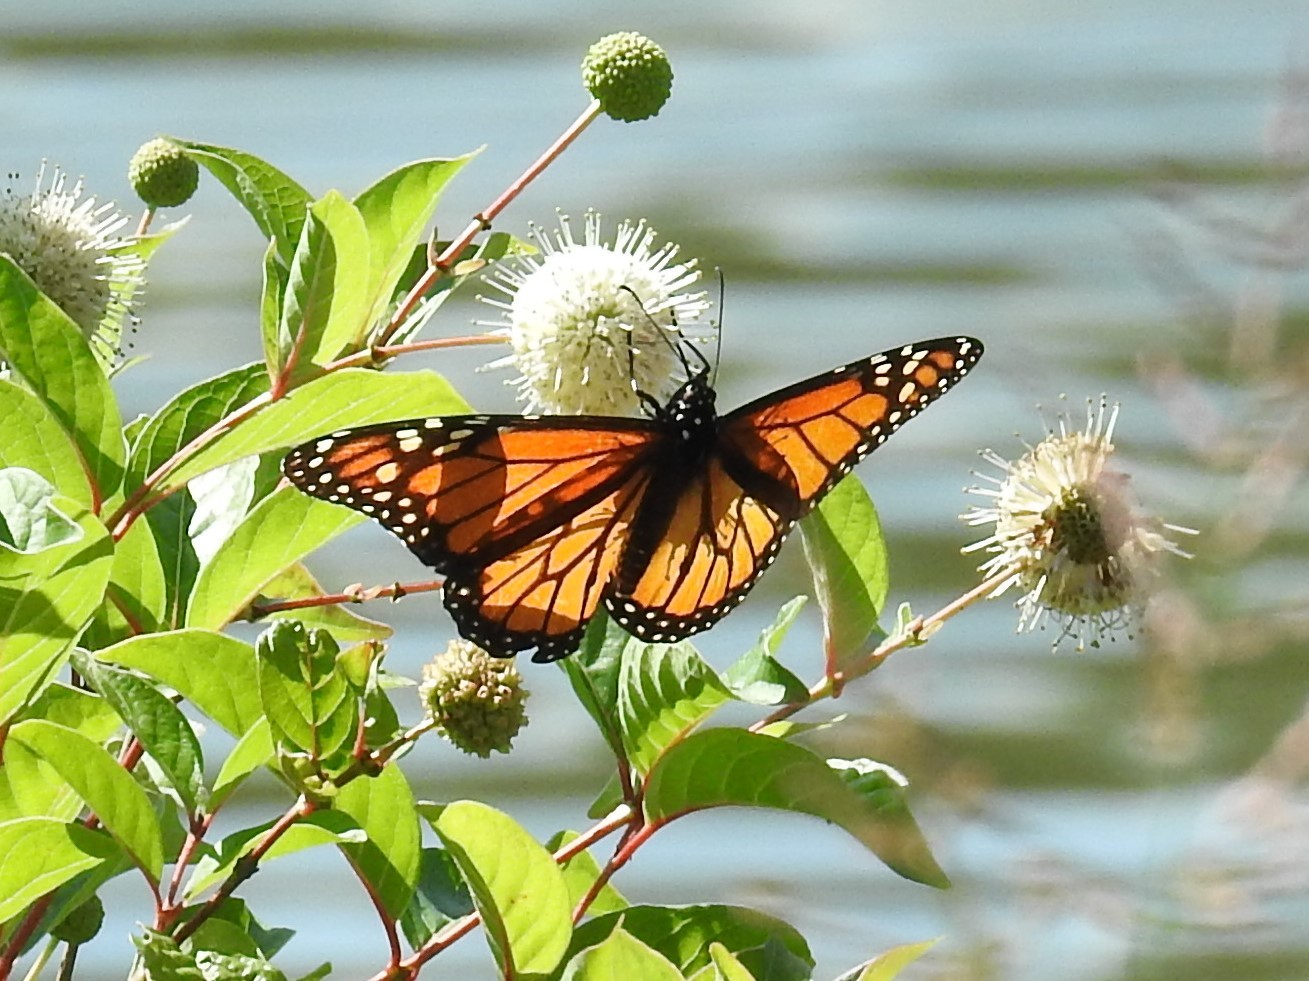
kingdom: Animalia
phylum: Arthropoda
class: Insecta
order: Lepidoptera
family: Nymphalidae
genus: Danaus
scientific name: Danaus plexippus
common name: Monarch
